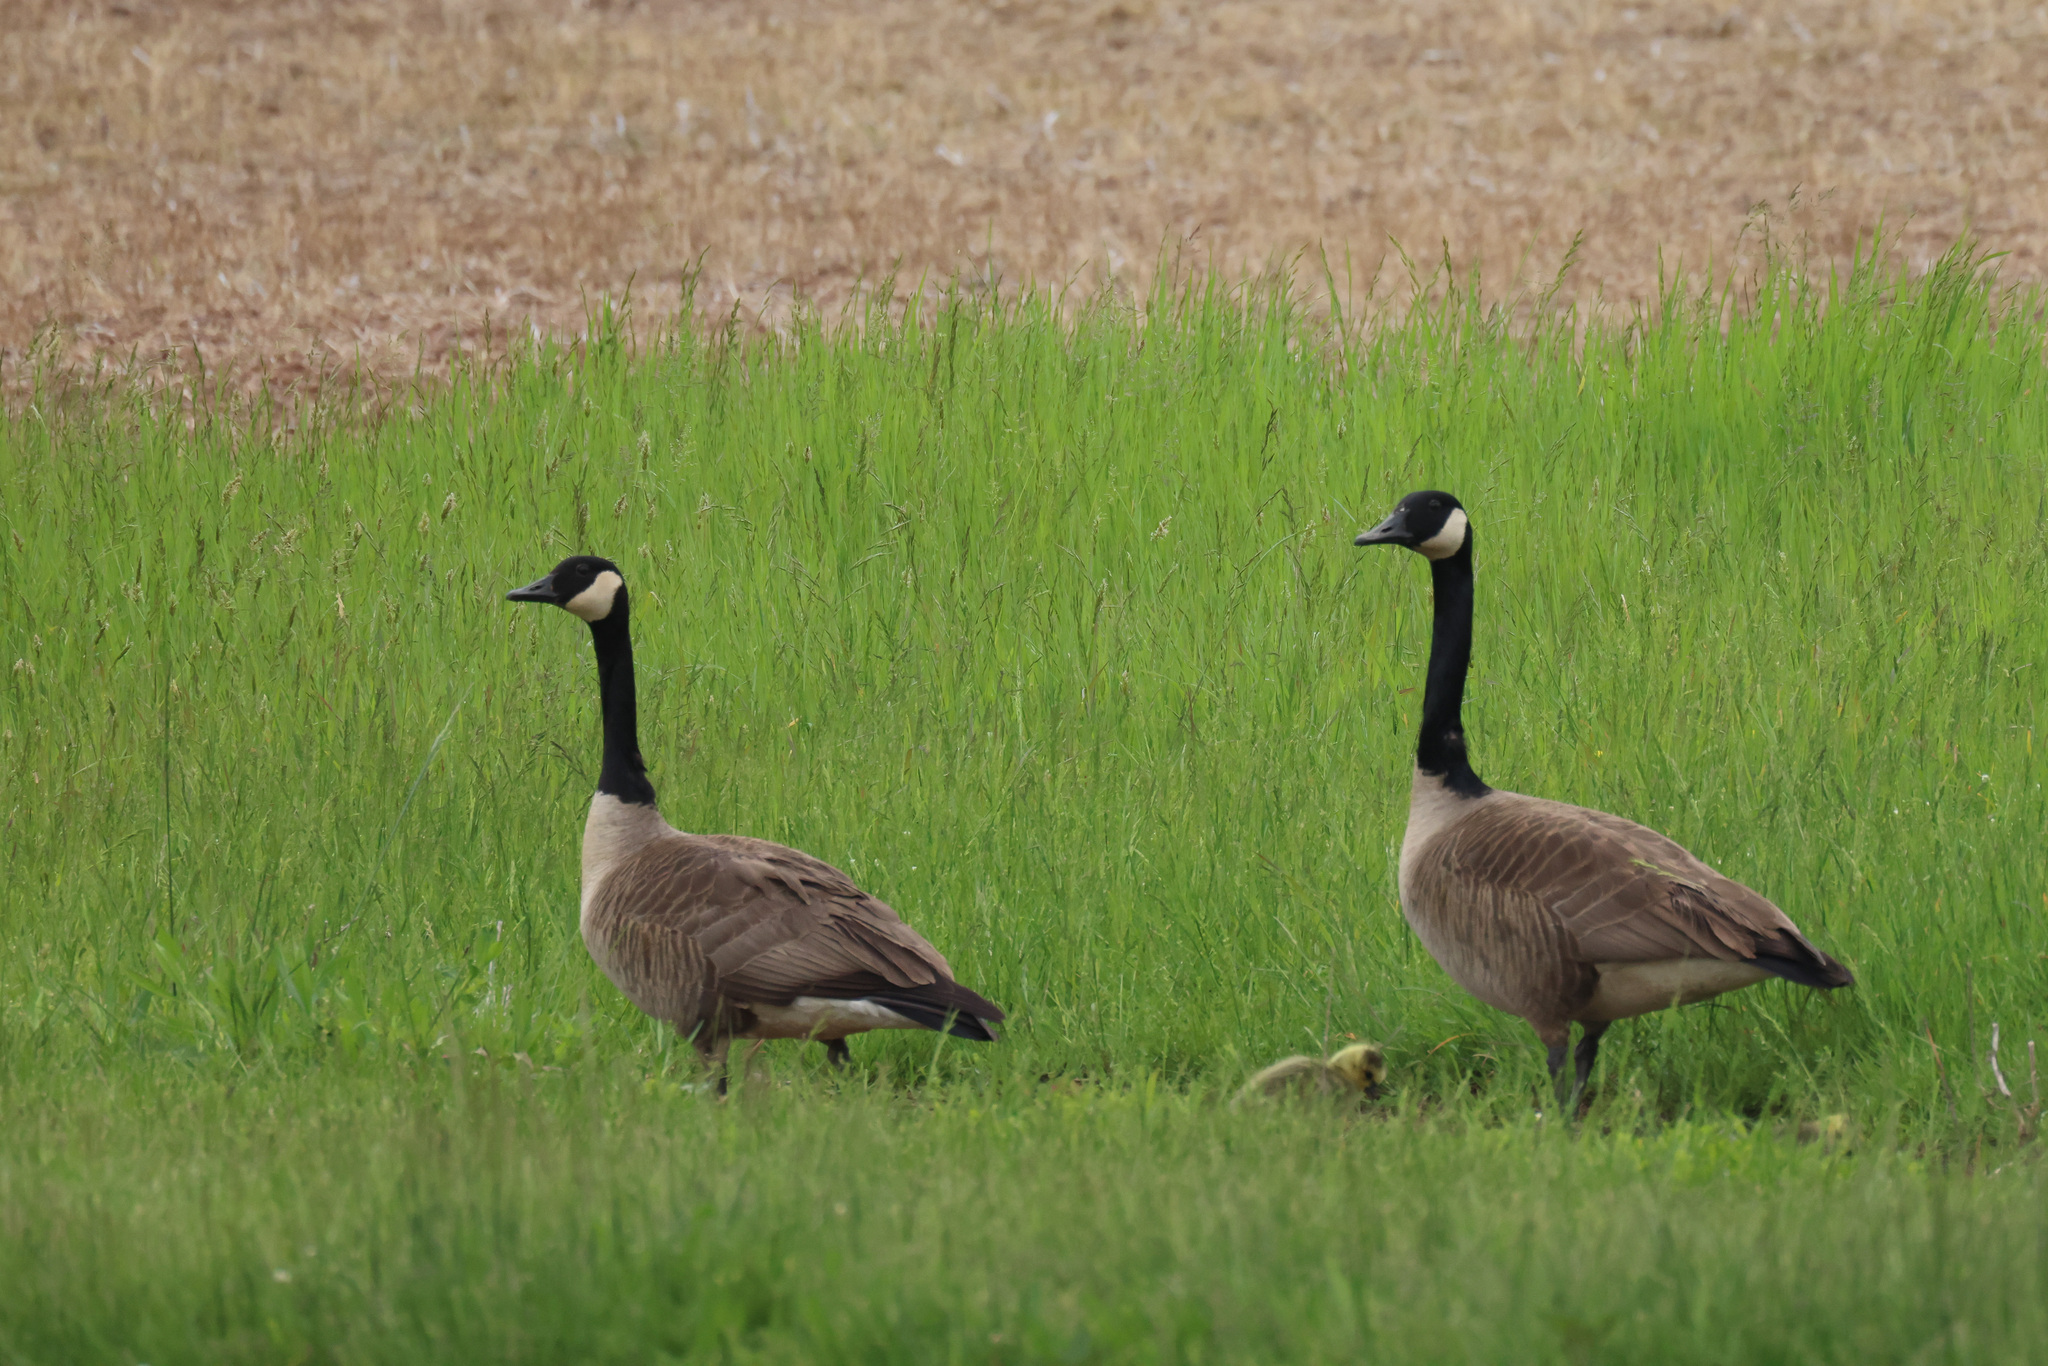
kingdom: Animalia
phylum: Chordata
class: Aves
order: Anseriformes
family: Anatidae
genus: Branta
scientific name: Branta canadensis
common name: Canada goose
